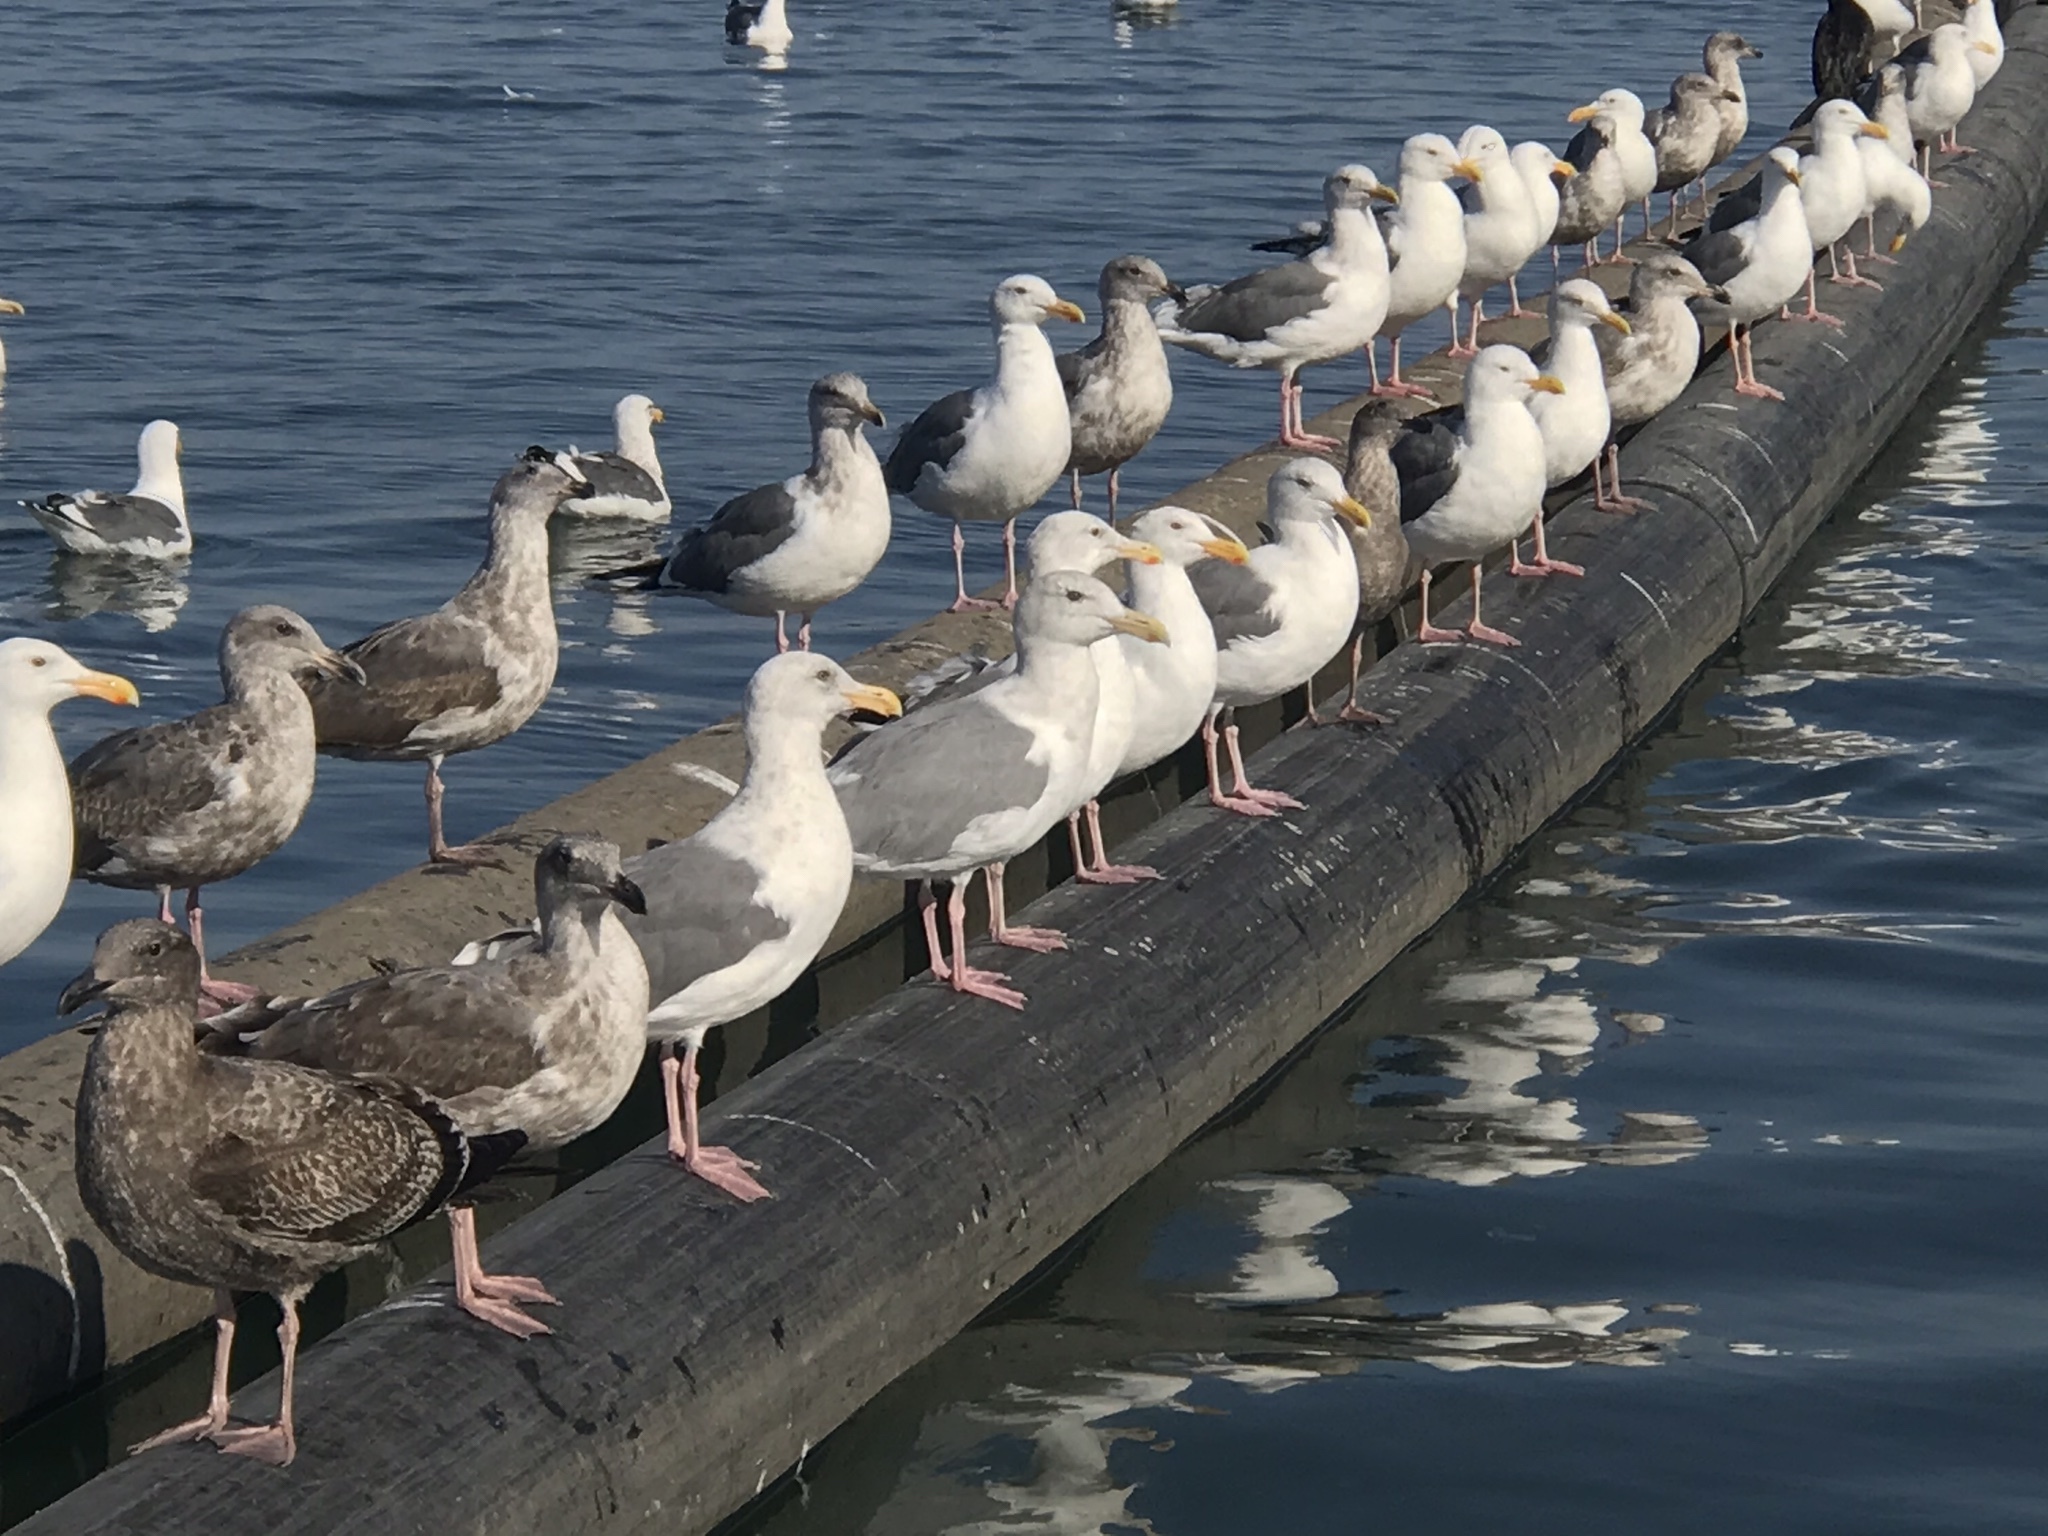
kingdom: Animalia
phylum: Chordata
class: Aves
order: Charadriiformes
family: Laridae
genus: Larus
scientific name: Larus occidentalis
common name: Western gull
